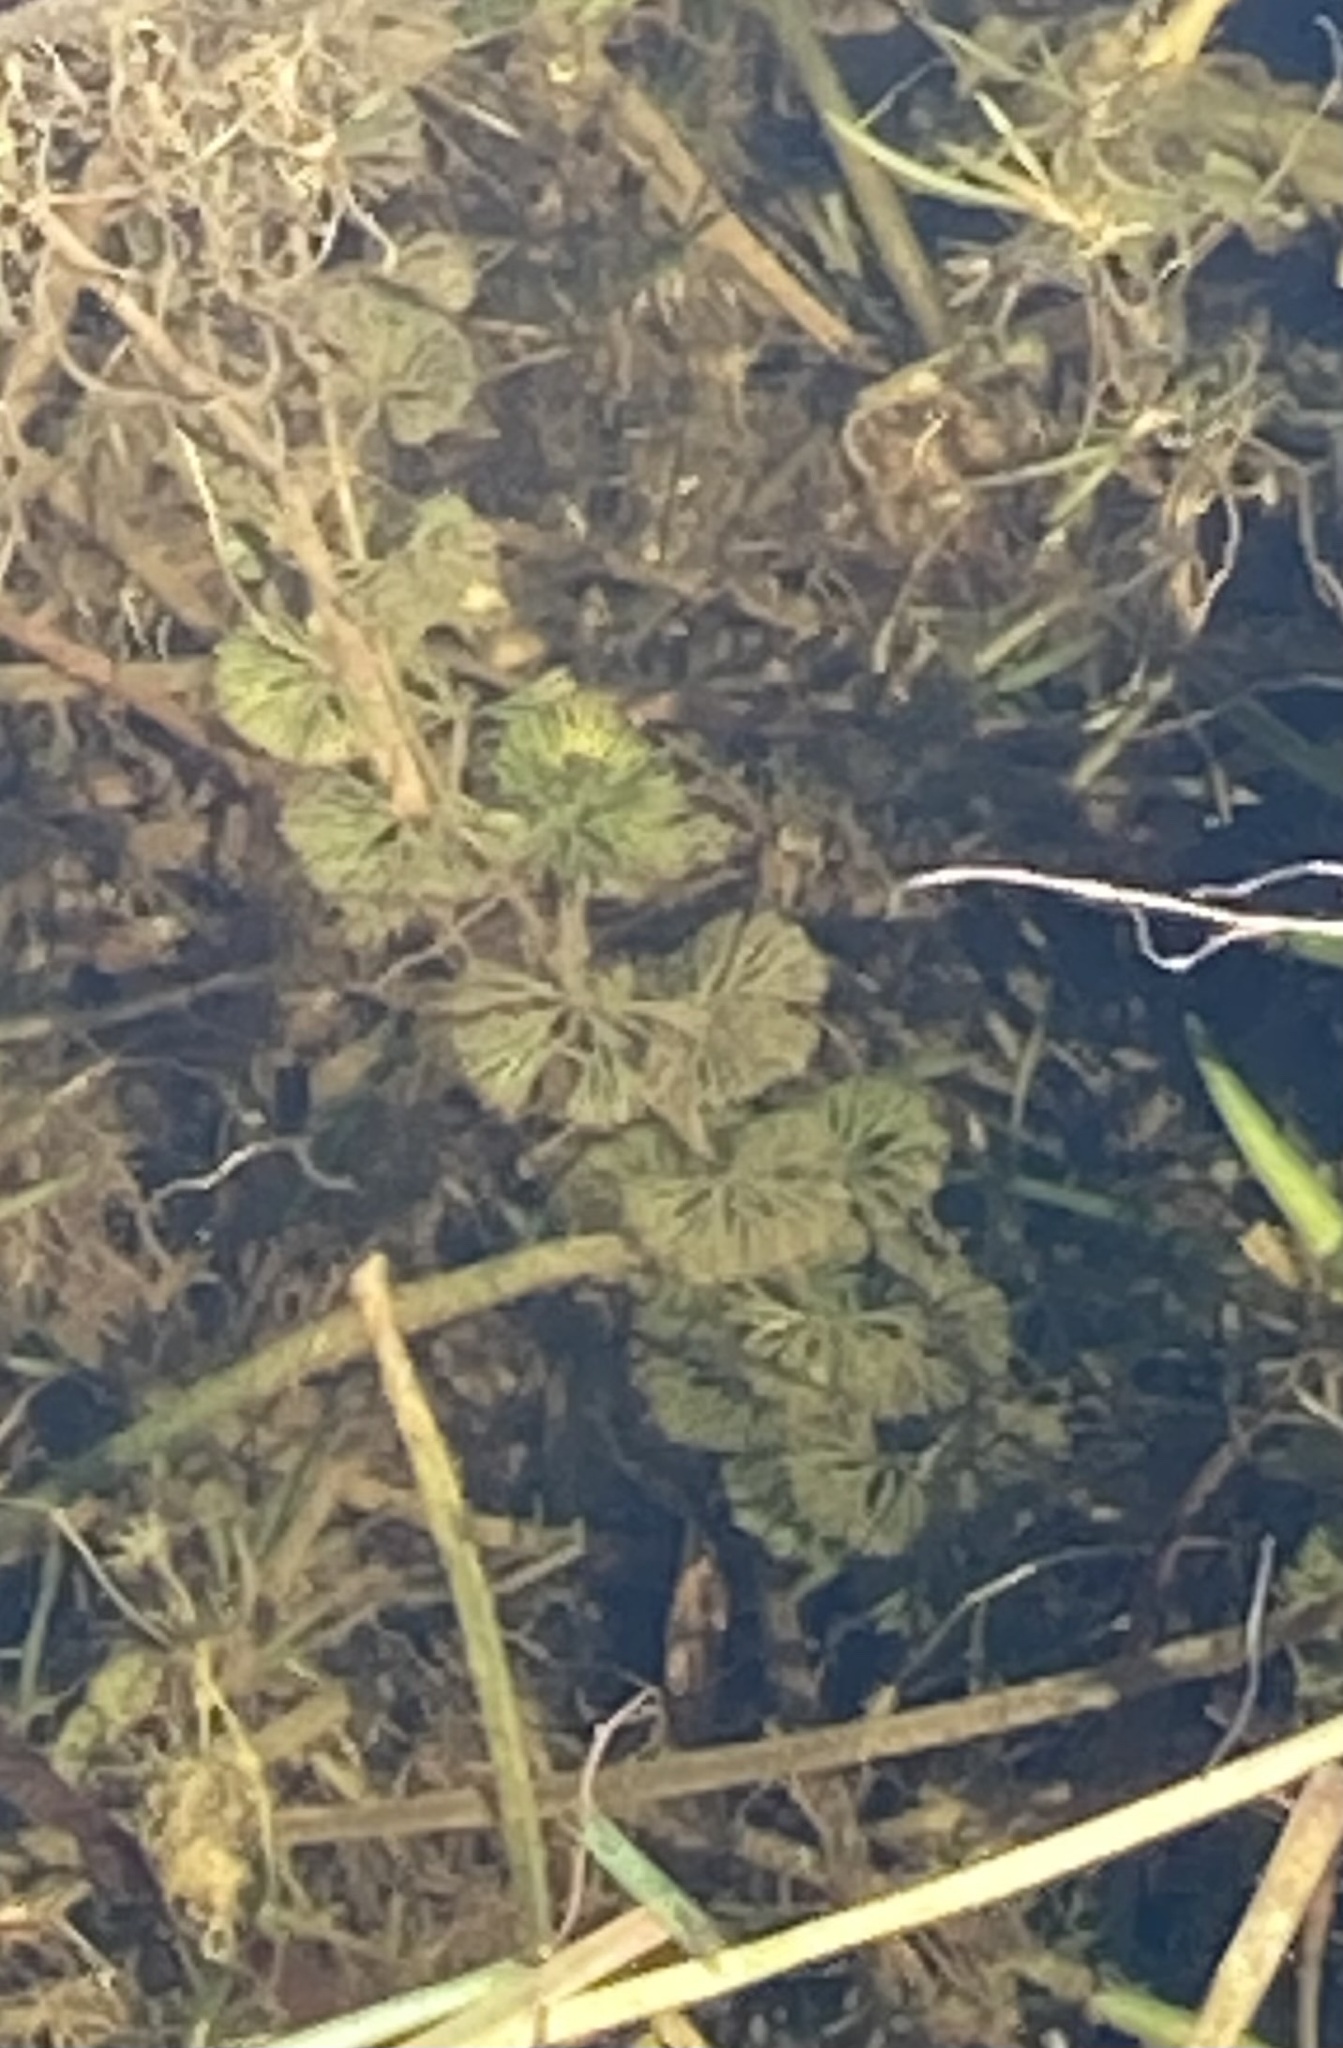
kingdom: Plantae
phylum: Tracheophyta
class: Magnoliopsida
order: Nymphaeales
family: Cabombaceae
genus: Cabomba
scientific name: Cabomba caroliniana
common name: Fanwort
